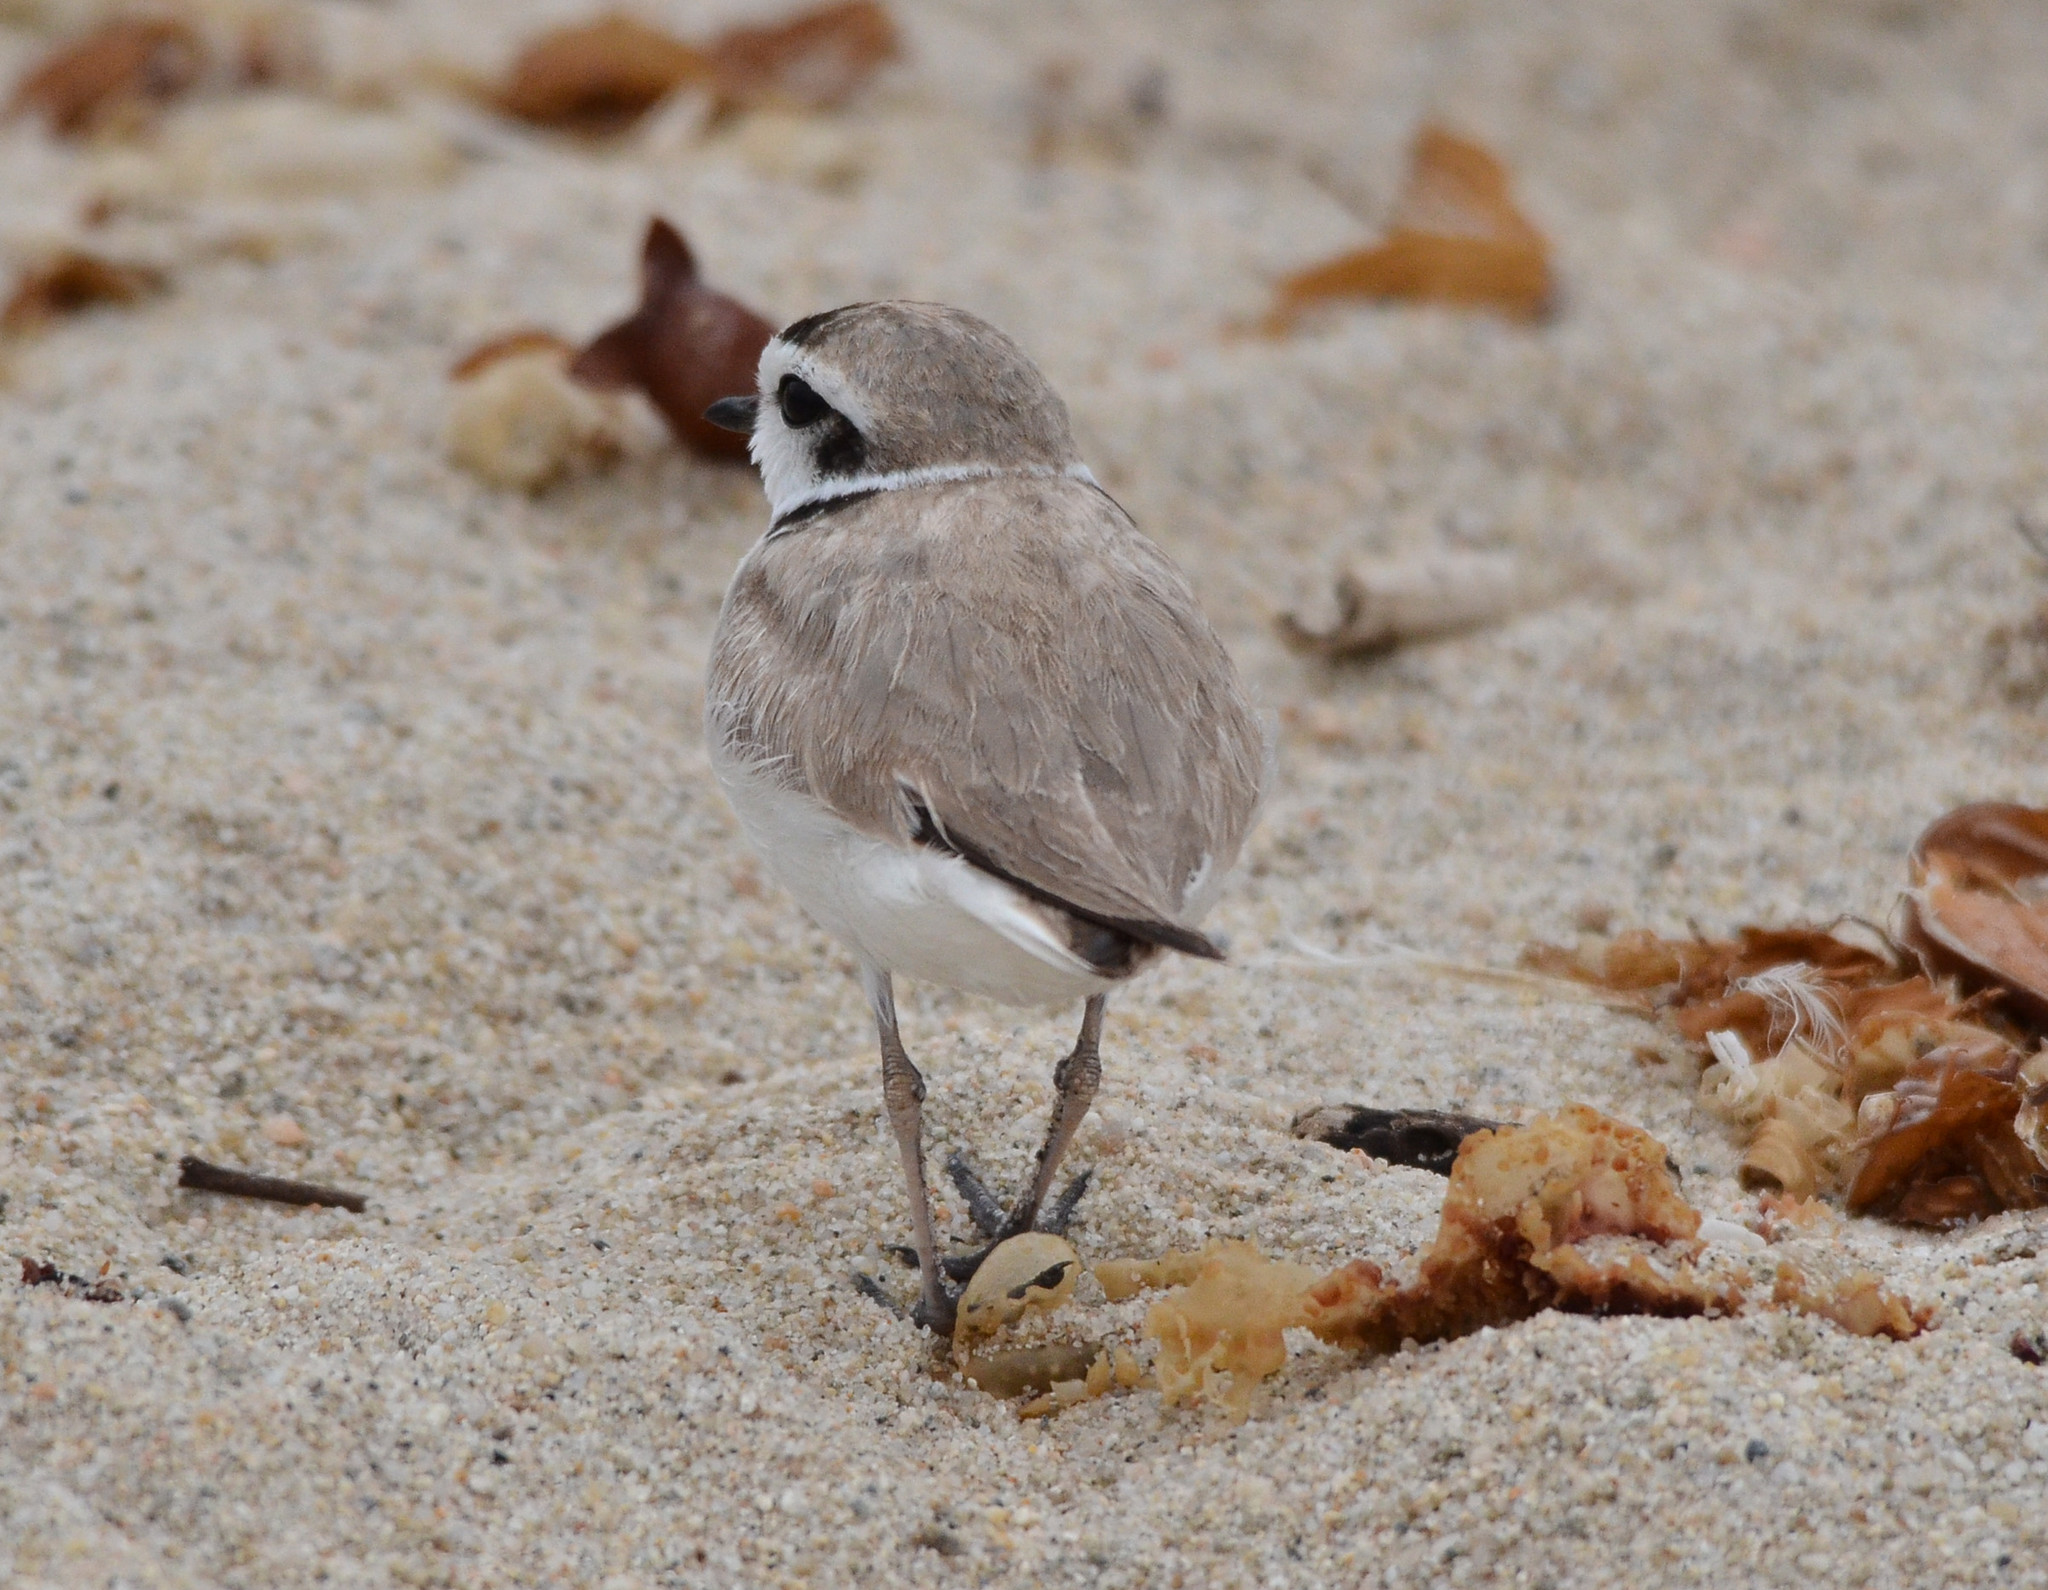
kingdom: Animalia
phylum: Chordata
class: Aves
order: Charadriiformes
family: Charadriidae
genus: Anarhynchus
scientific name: Anarhynchus
